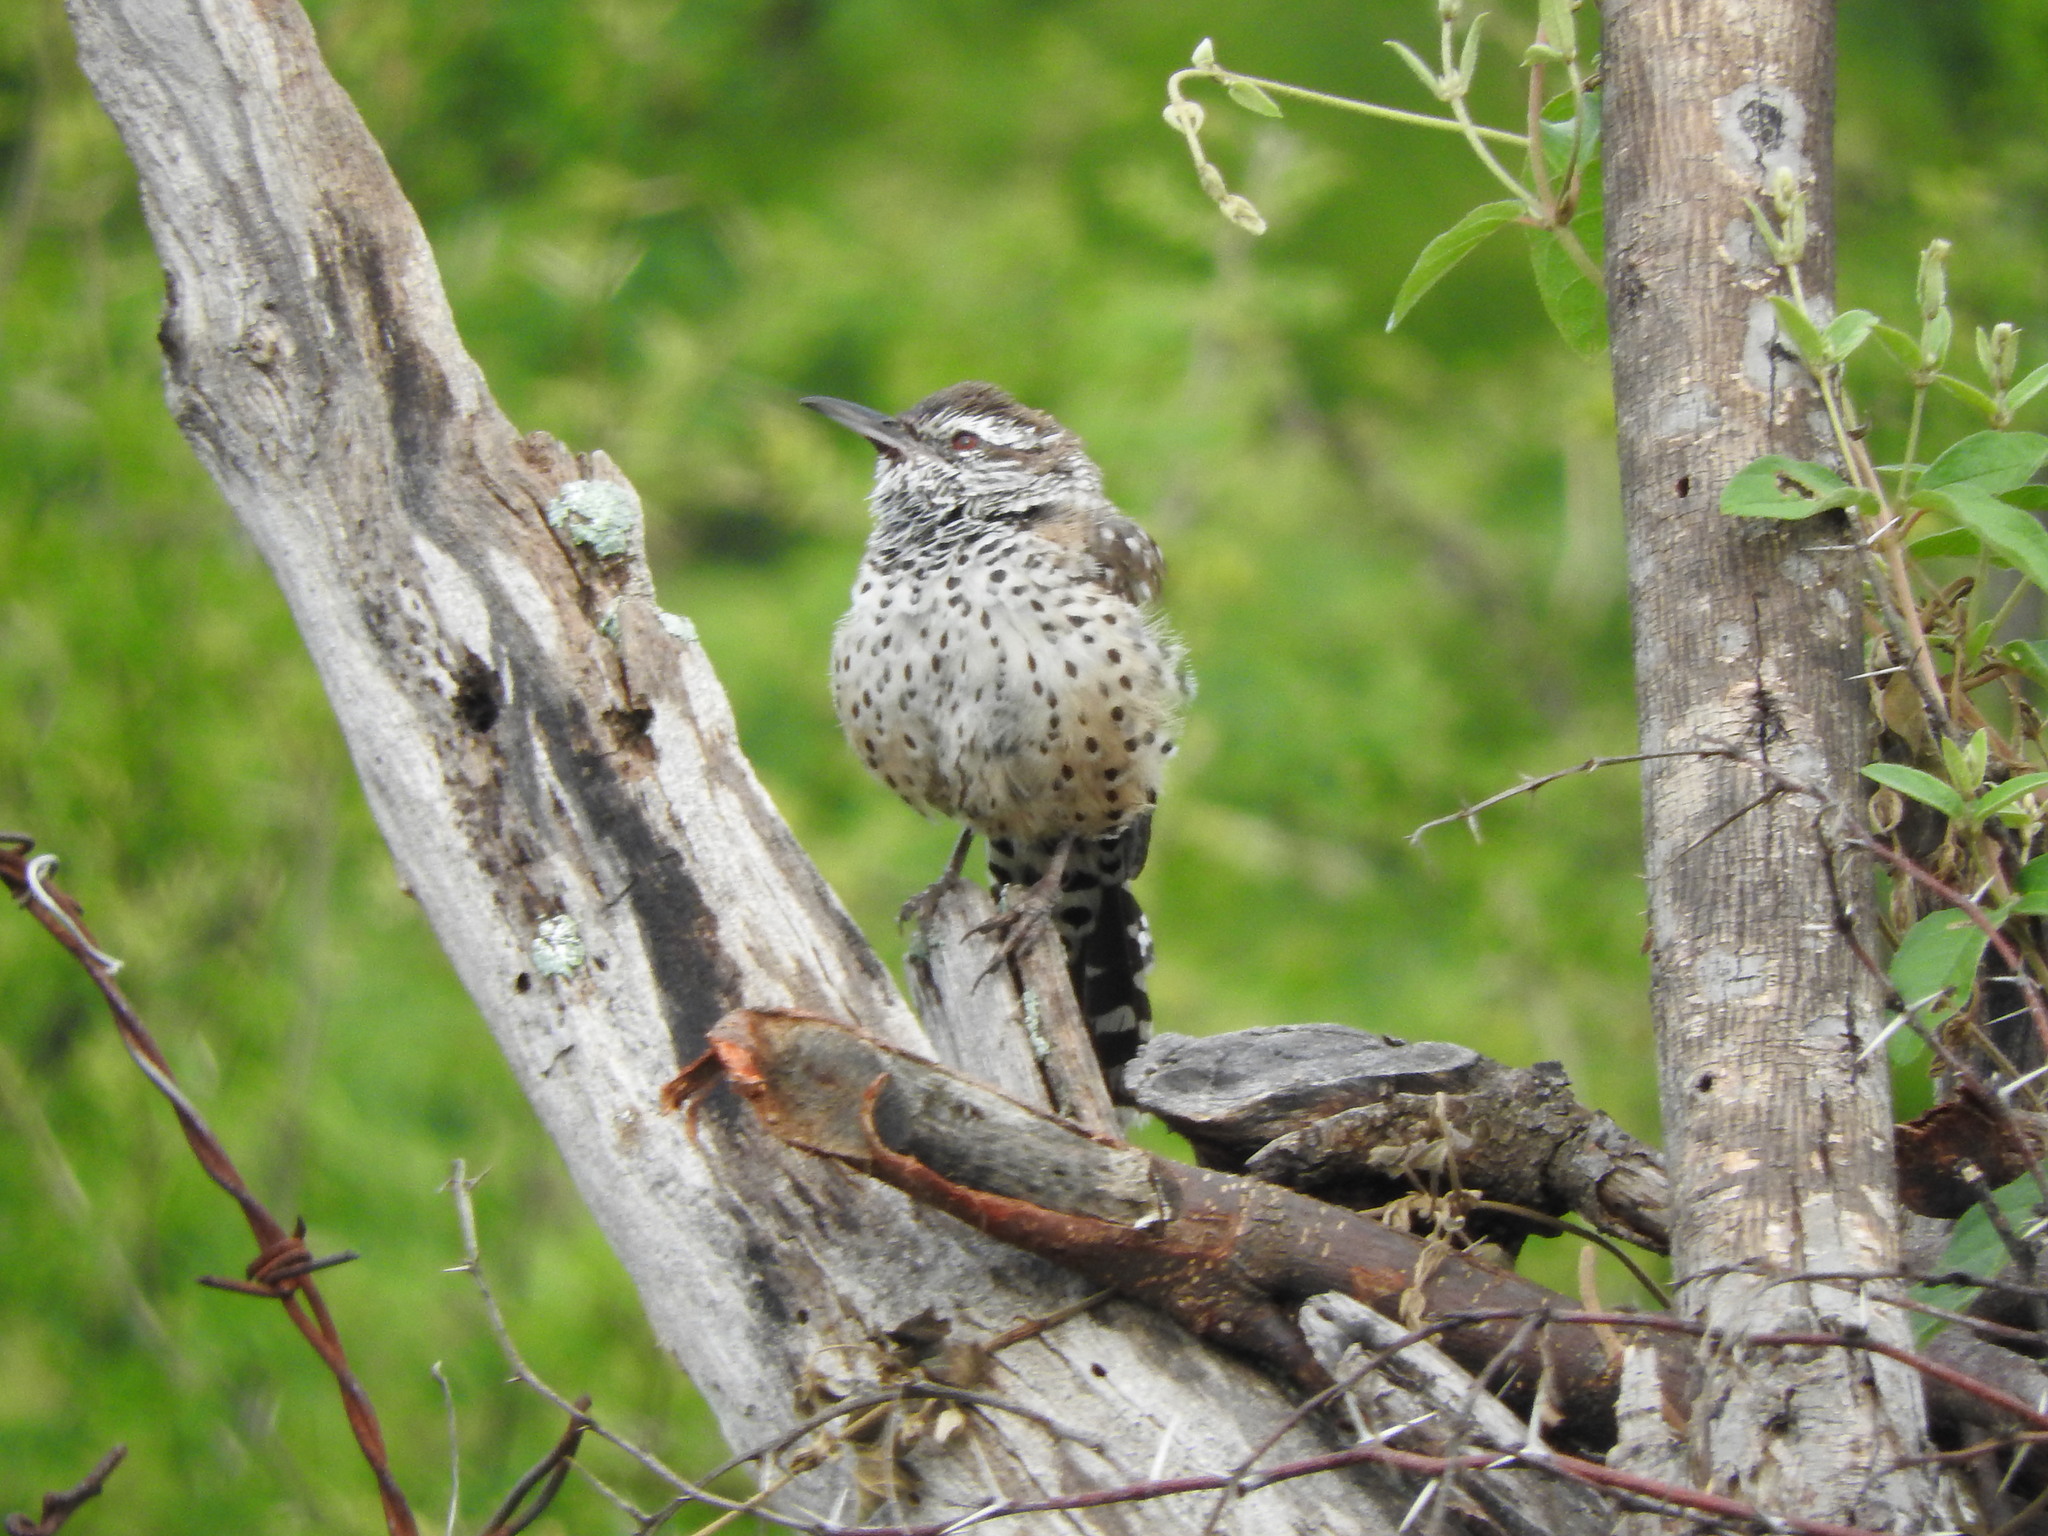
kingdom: Animalia
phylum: Chordata
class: Aves
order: Passeriformes
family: Troglodytidae
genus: Campylorhynchus
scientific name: Campylorhynchus brunneicapillus
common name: Cactus wren
